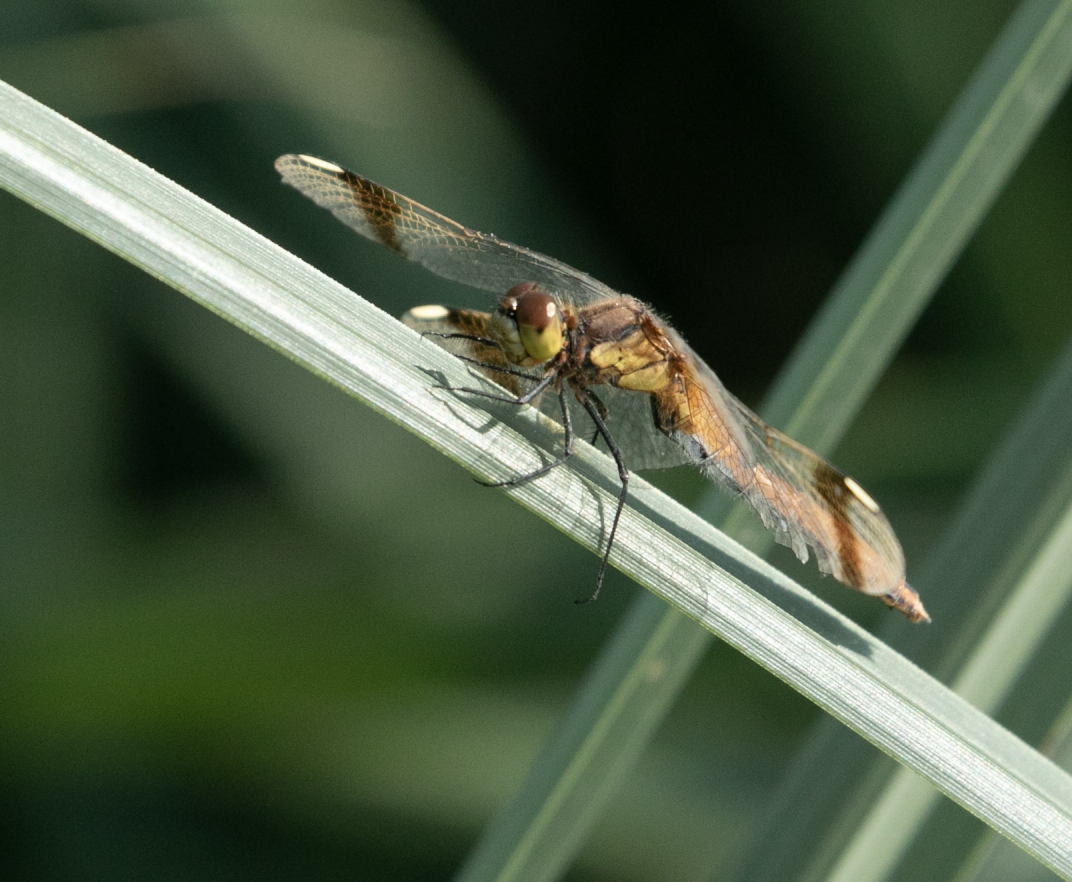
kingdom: Animalia
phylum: Arthropoda
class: Insecta
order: Odonata
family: Libellulidae
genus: Sympetrum
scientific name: Sympetrum pedemontanum
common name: Banded darter
